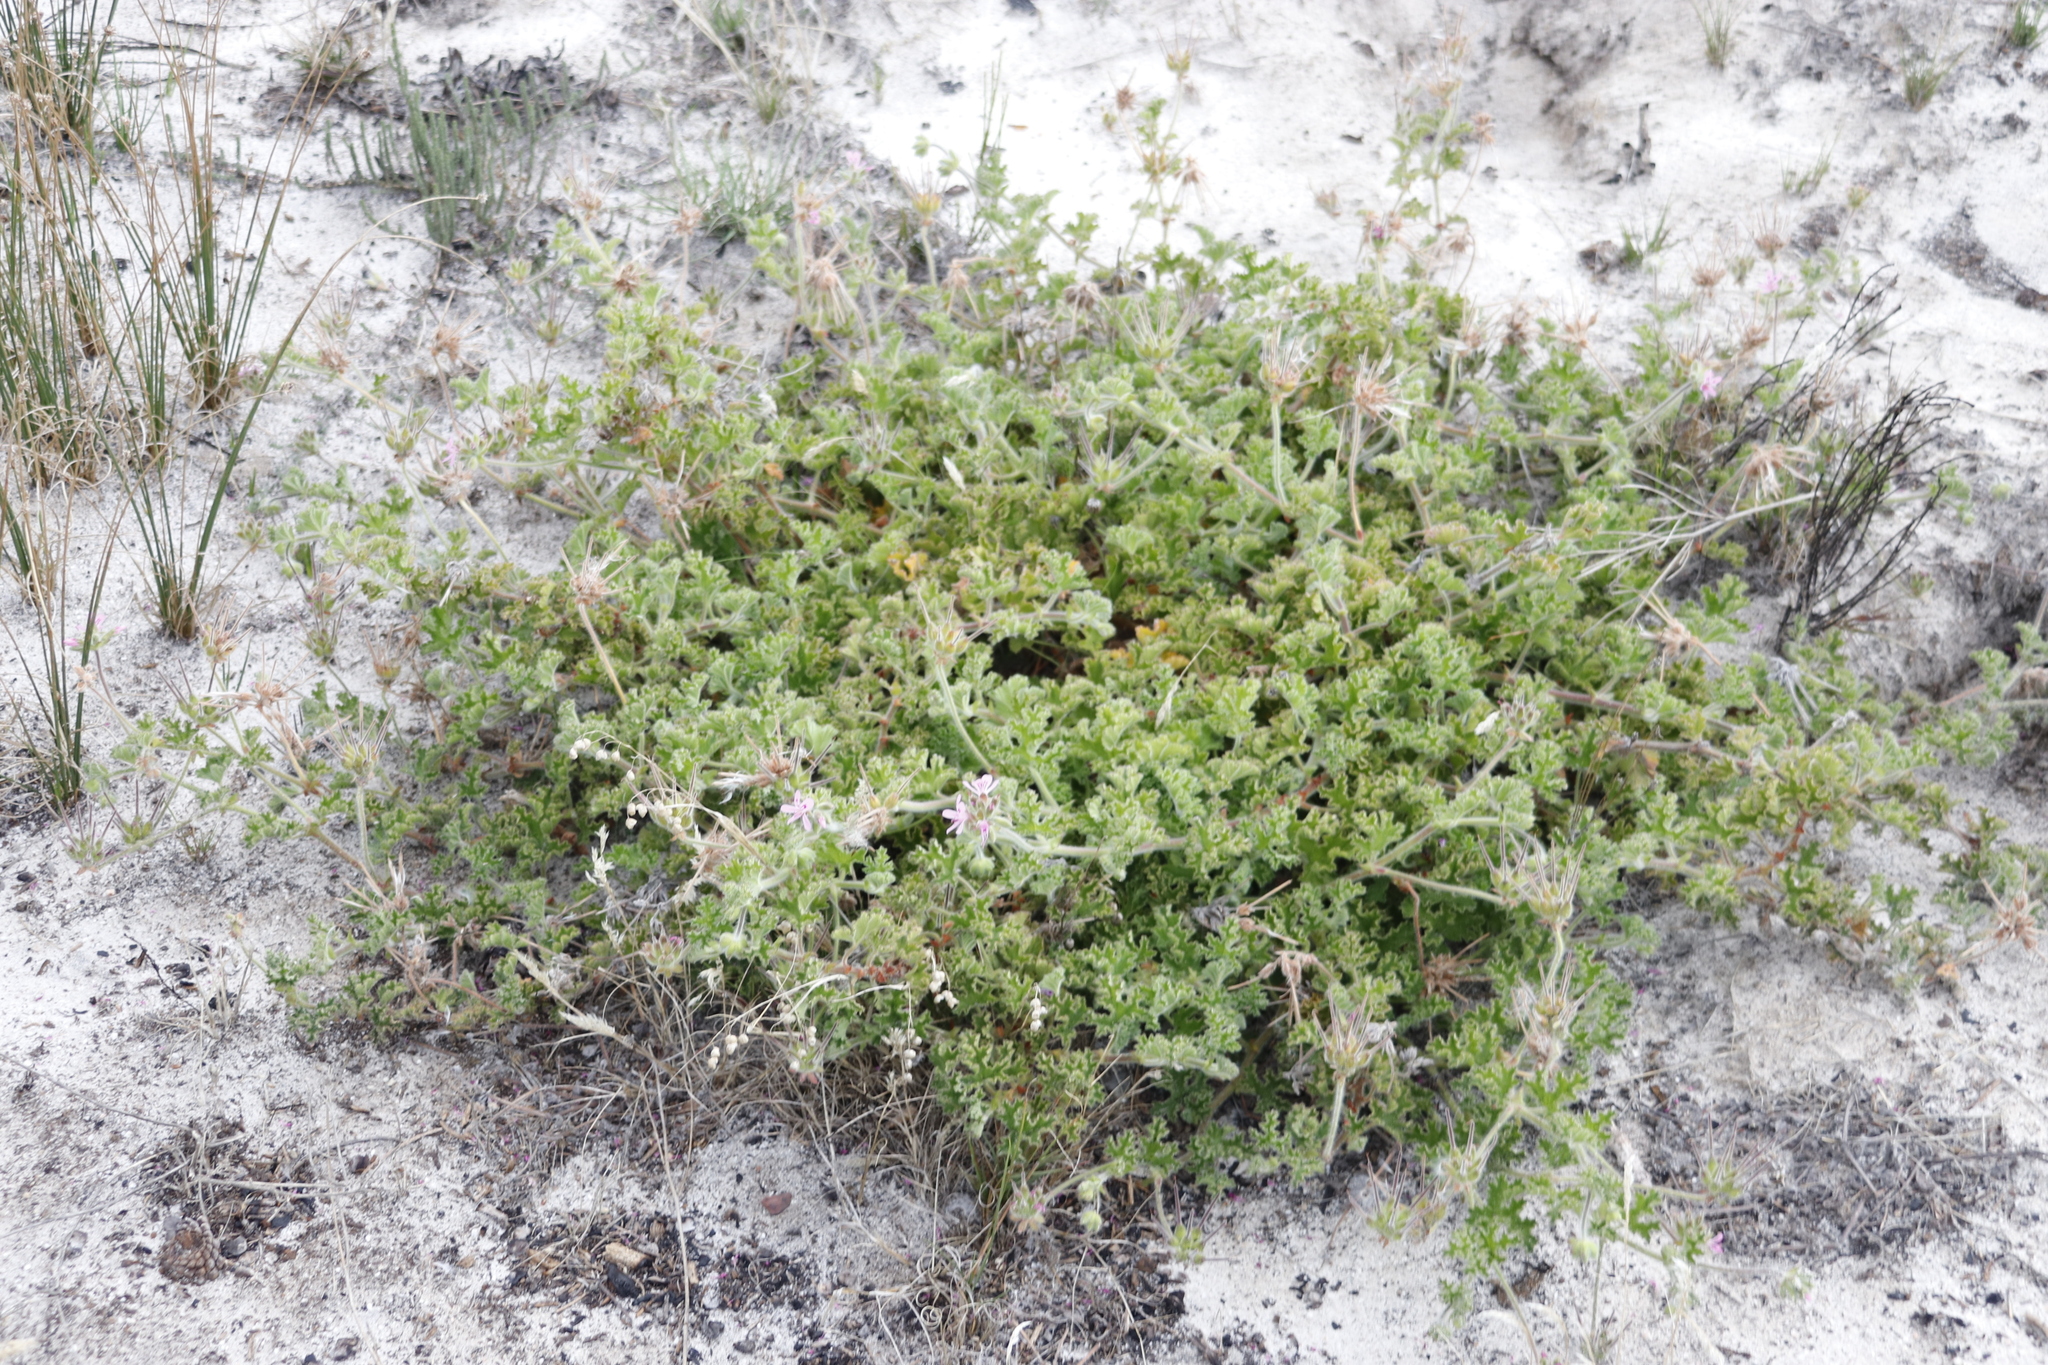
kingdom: Plantae
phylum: Tracheophyta
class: Magnoliopsida
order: Geraniales
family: Geraniaceae
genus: Pelargonium
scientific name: Pelargonium capitatum
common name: Rose scented geranium
